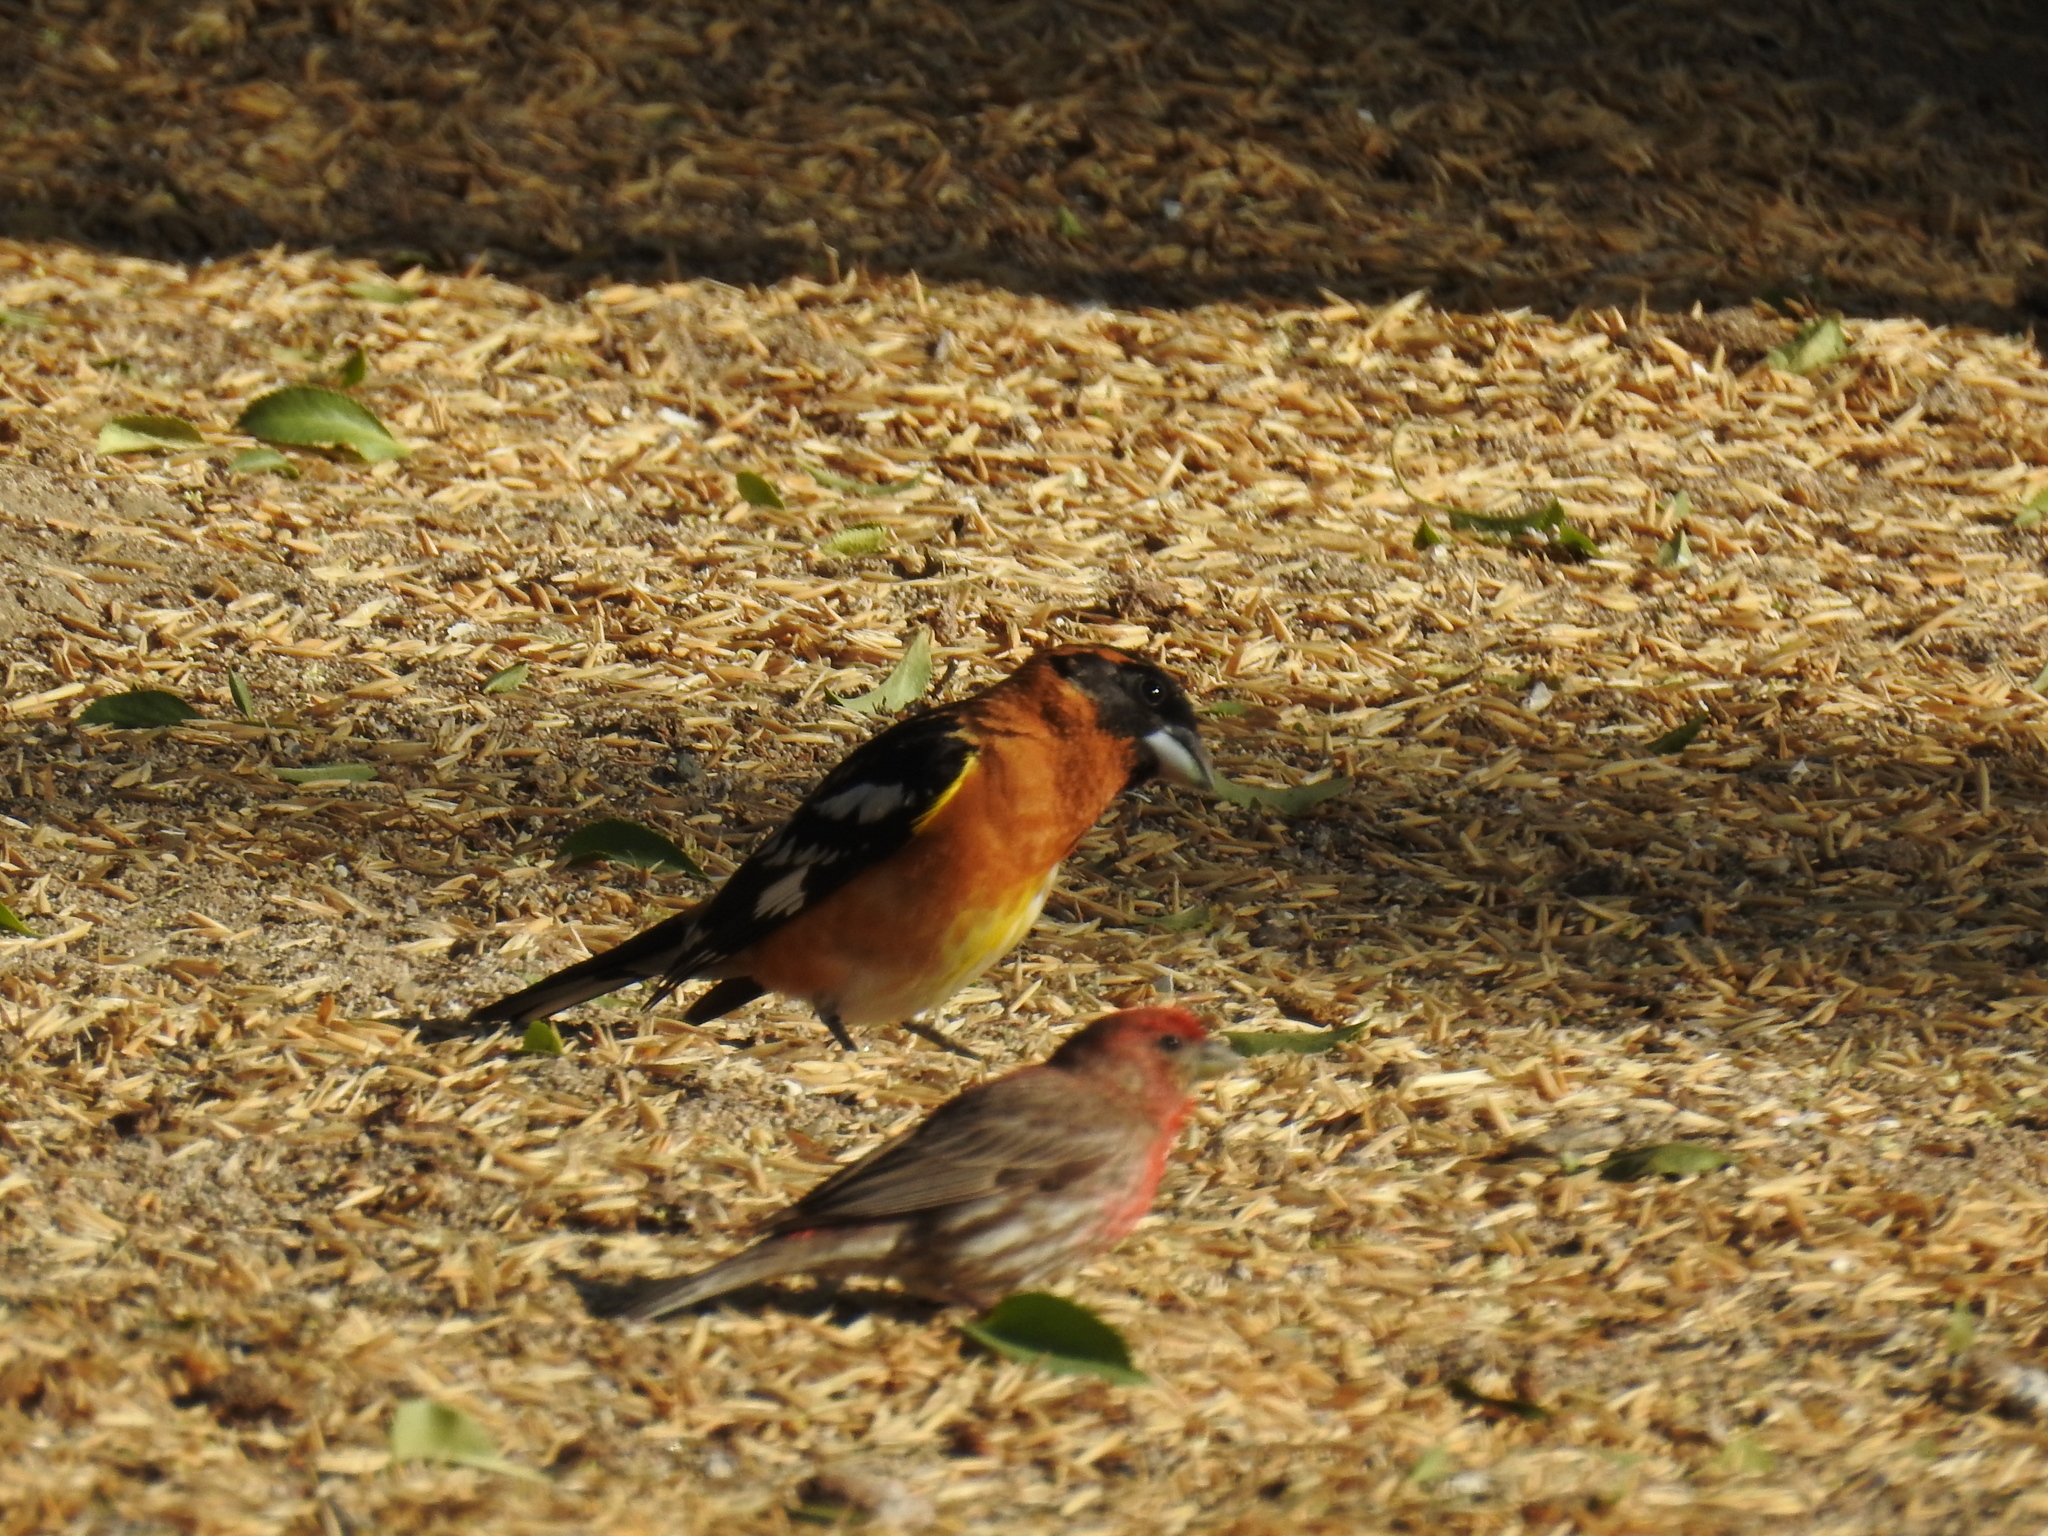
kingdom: Animalia
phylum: Chordata
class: Aves
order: Passeriformes
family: Cardinalidae
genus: Pheucticus
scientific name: Pheucticus melanocephalus
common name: Black-headed grosbeak
